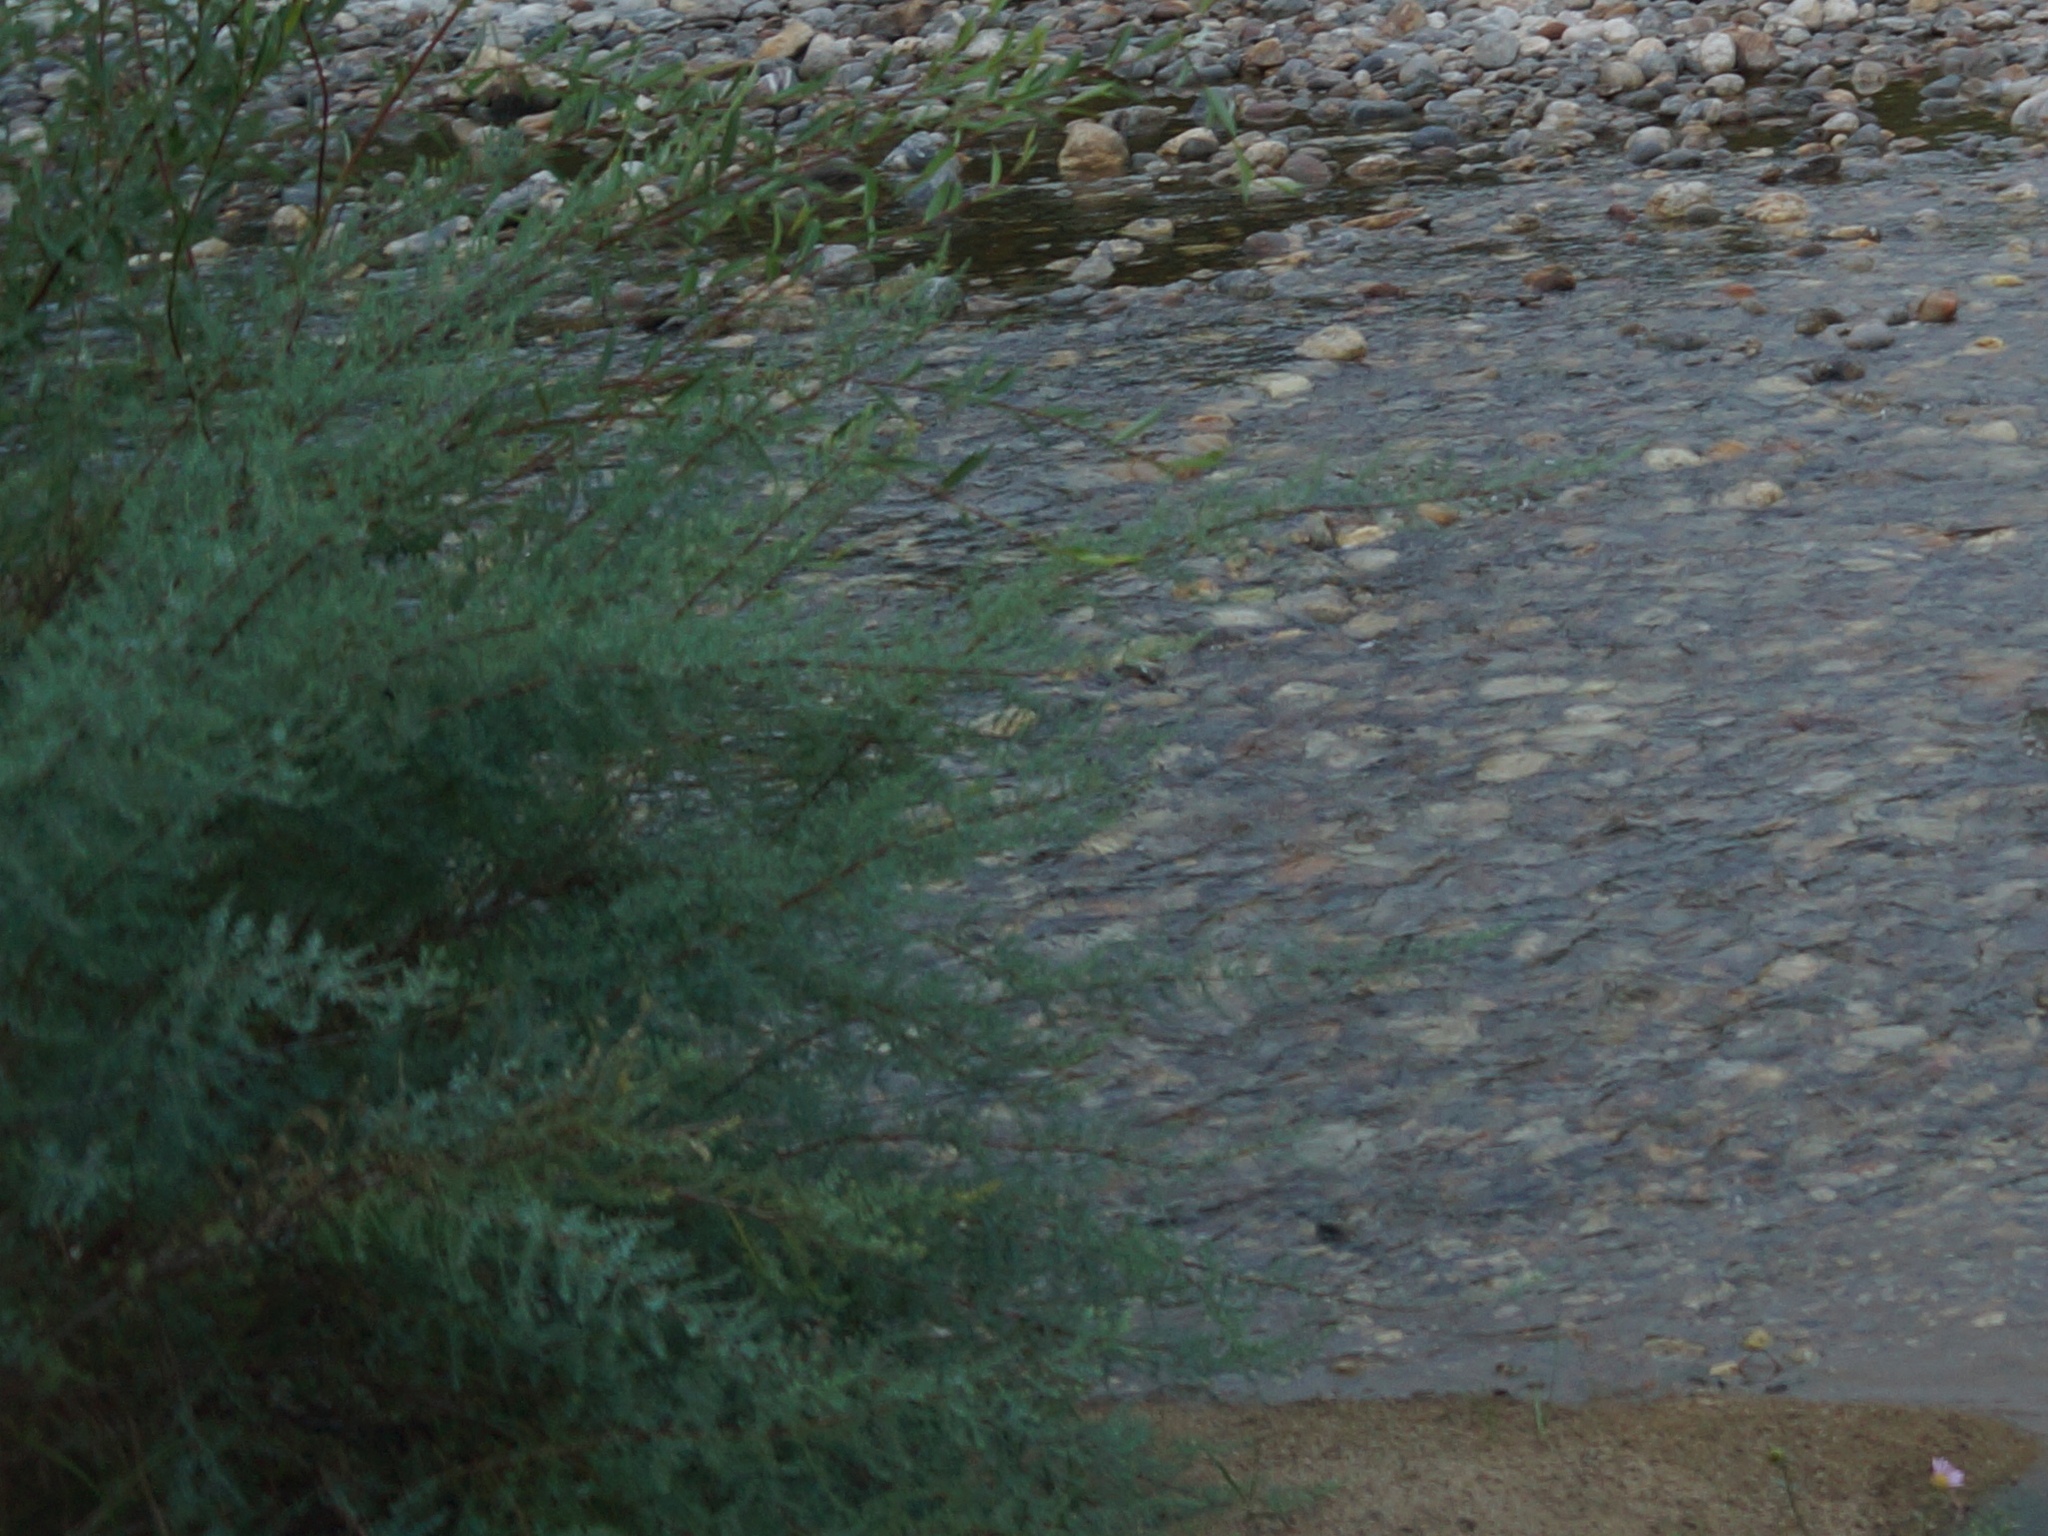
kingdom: Plantae
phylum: Tracheophyta
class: Magnoliopsida
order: Caryophyllales
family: Tamaricaceae
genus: Myricaria
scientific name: Myricaria longifolia
